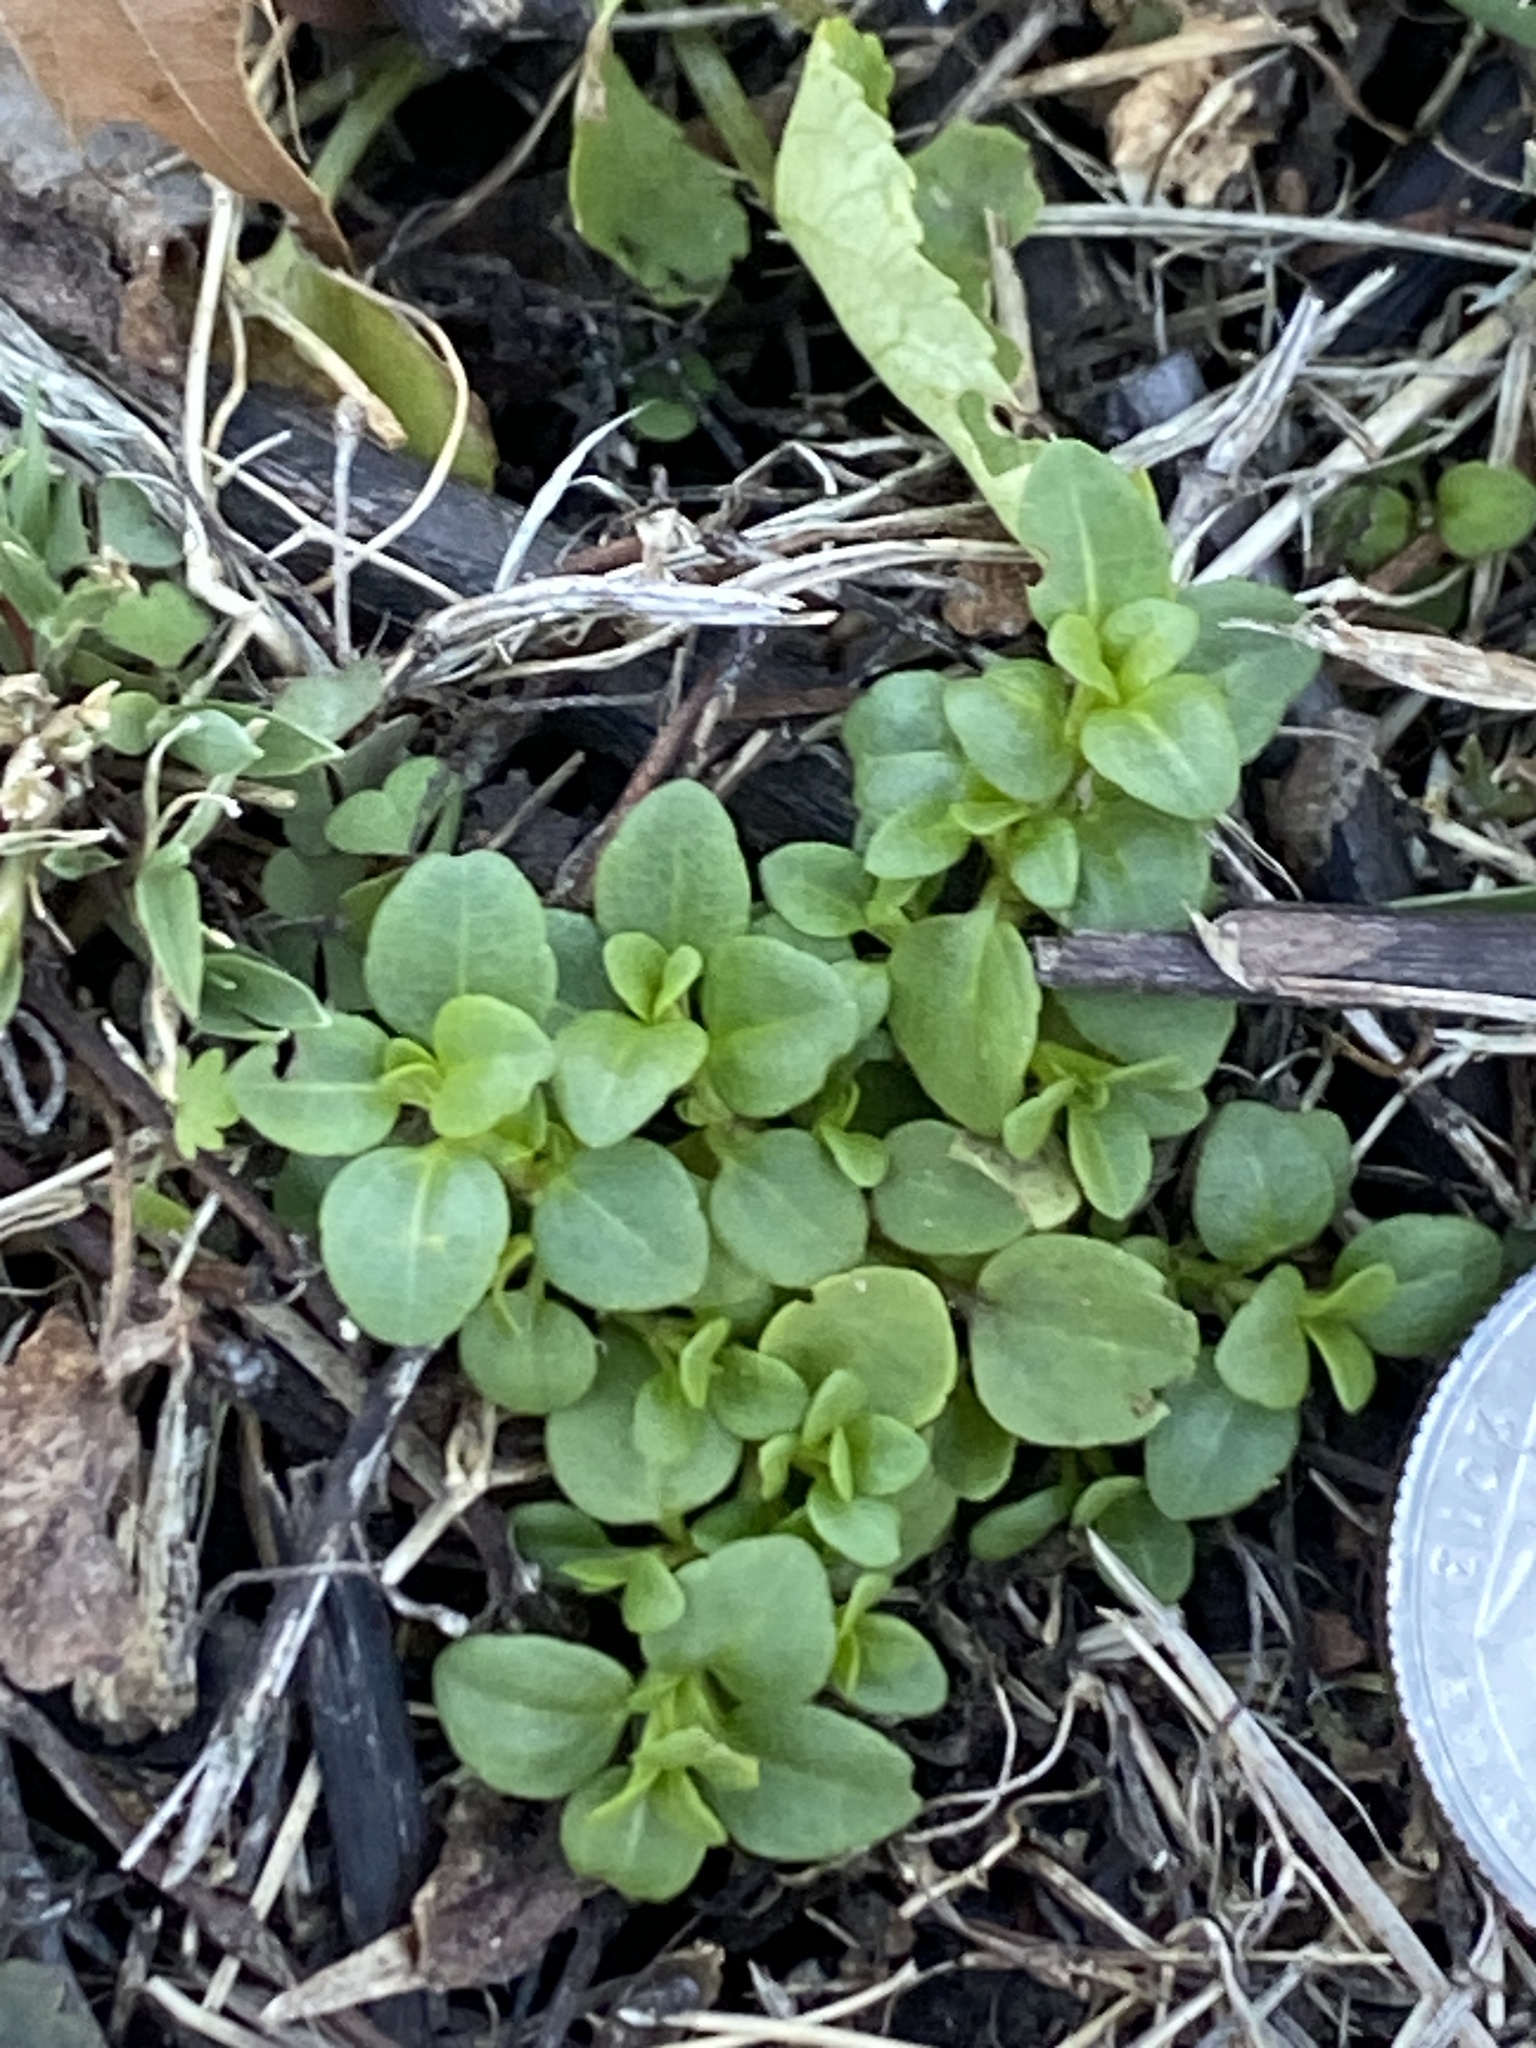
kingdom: Plantae
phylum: Tracheophyta
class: Magnoliopsida
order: Lamiales
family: Plantaginaceae
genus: Veronica
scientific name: Veronica serpyllifolia
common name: Thyme-leaved speedwell
